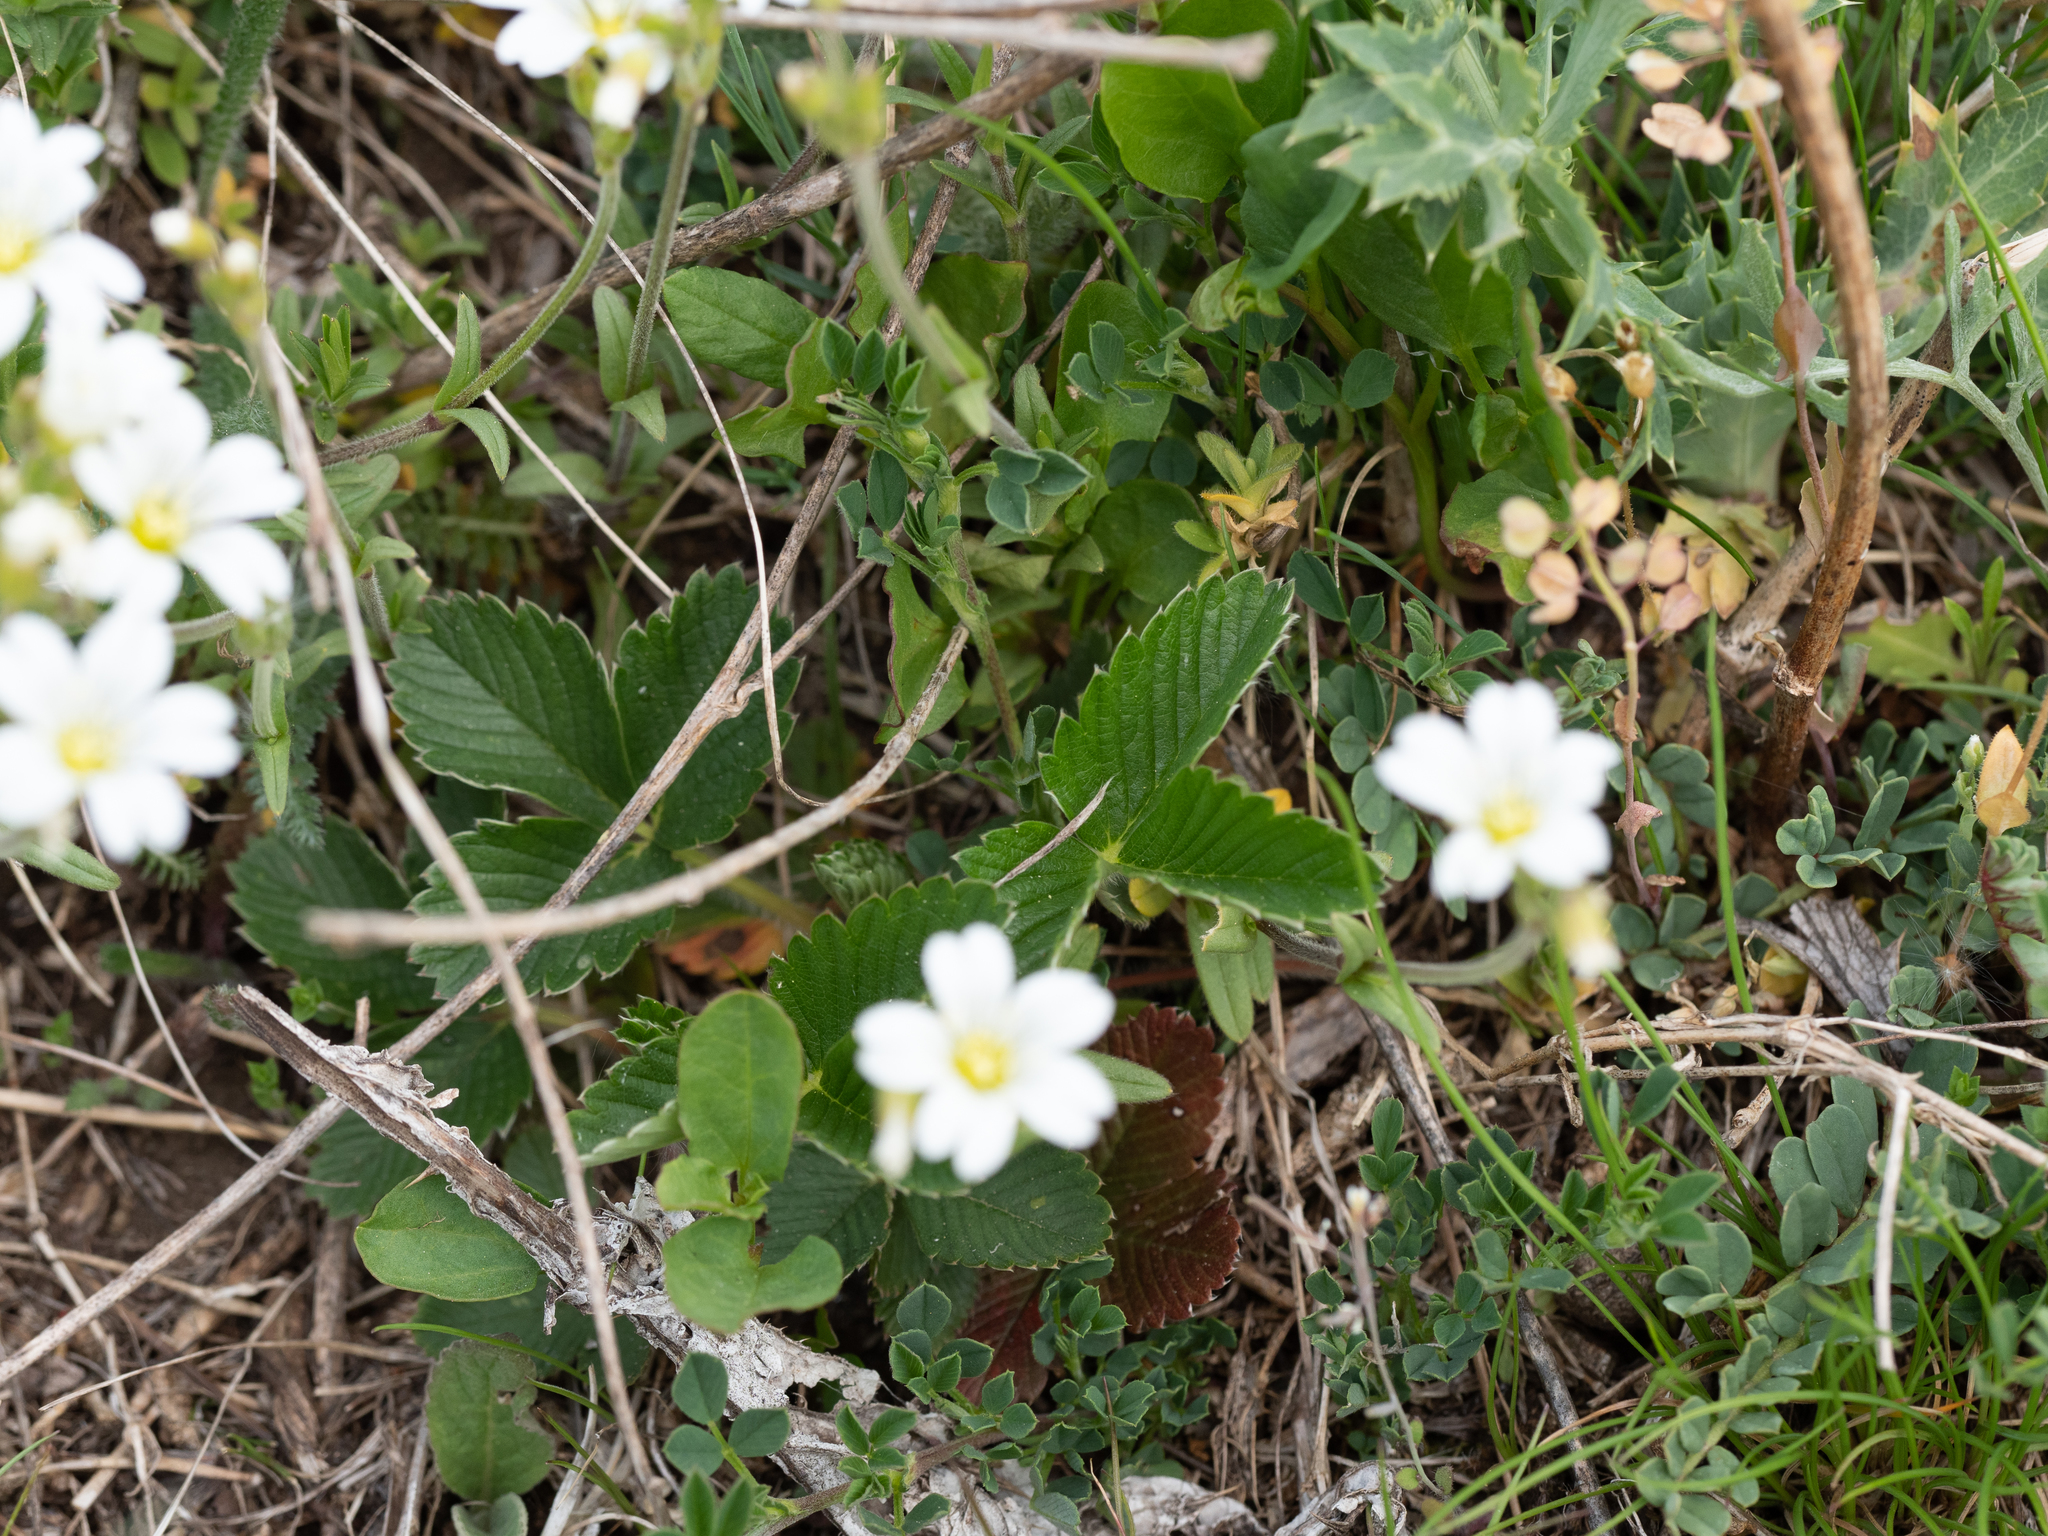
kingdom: Plantae
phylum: Tracheophyta
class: Magnoliopsida
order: Caryophyllales
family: Caryophyllaceae
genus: Cerastium
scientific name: Cerastium arvense
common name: Field mouse-ear
